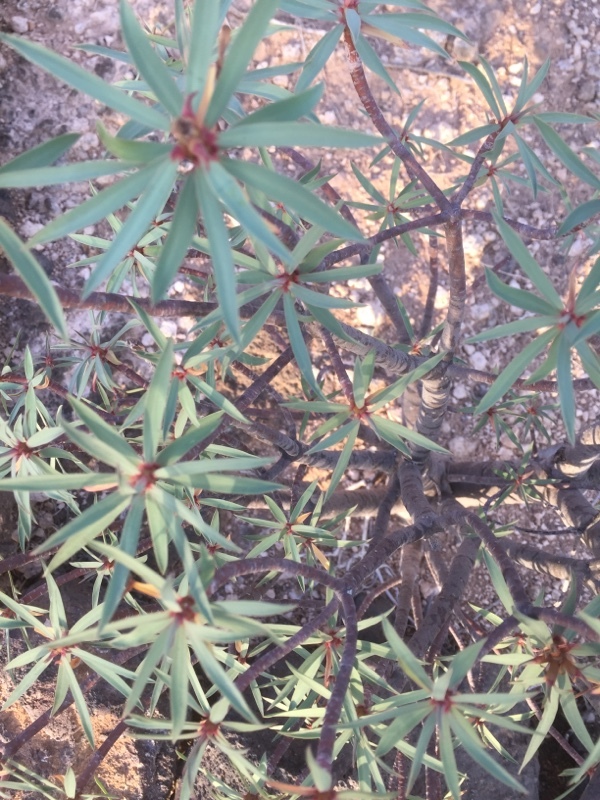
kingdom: Plantae
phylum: Tracheophyta
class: Magnoliopsida
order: Malpighiales
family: Euphorbiaceae
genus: Euphorbia
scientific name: Euphorbia balsamifera
